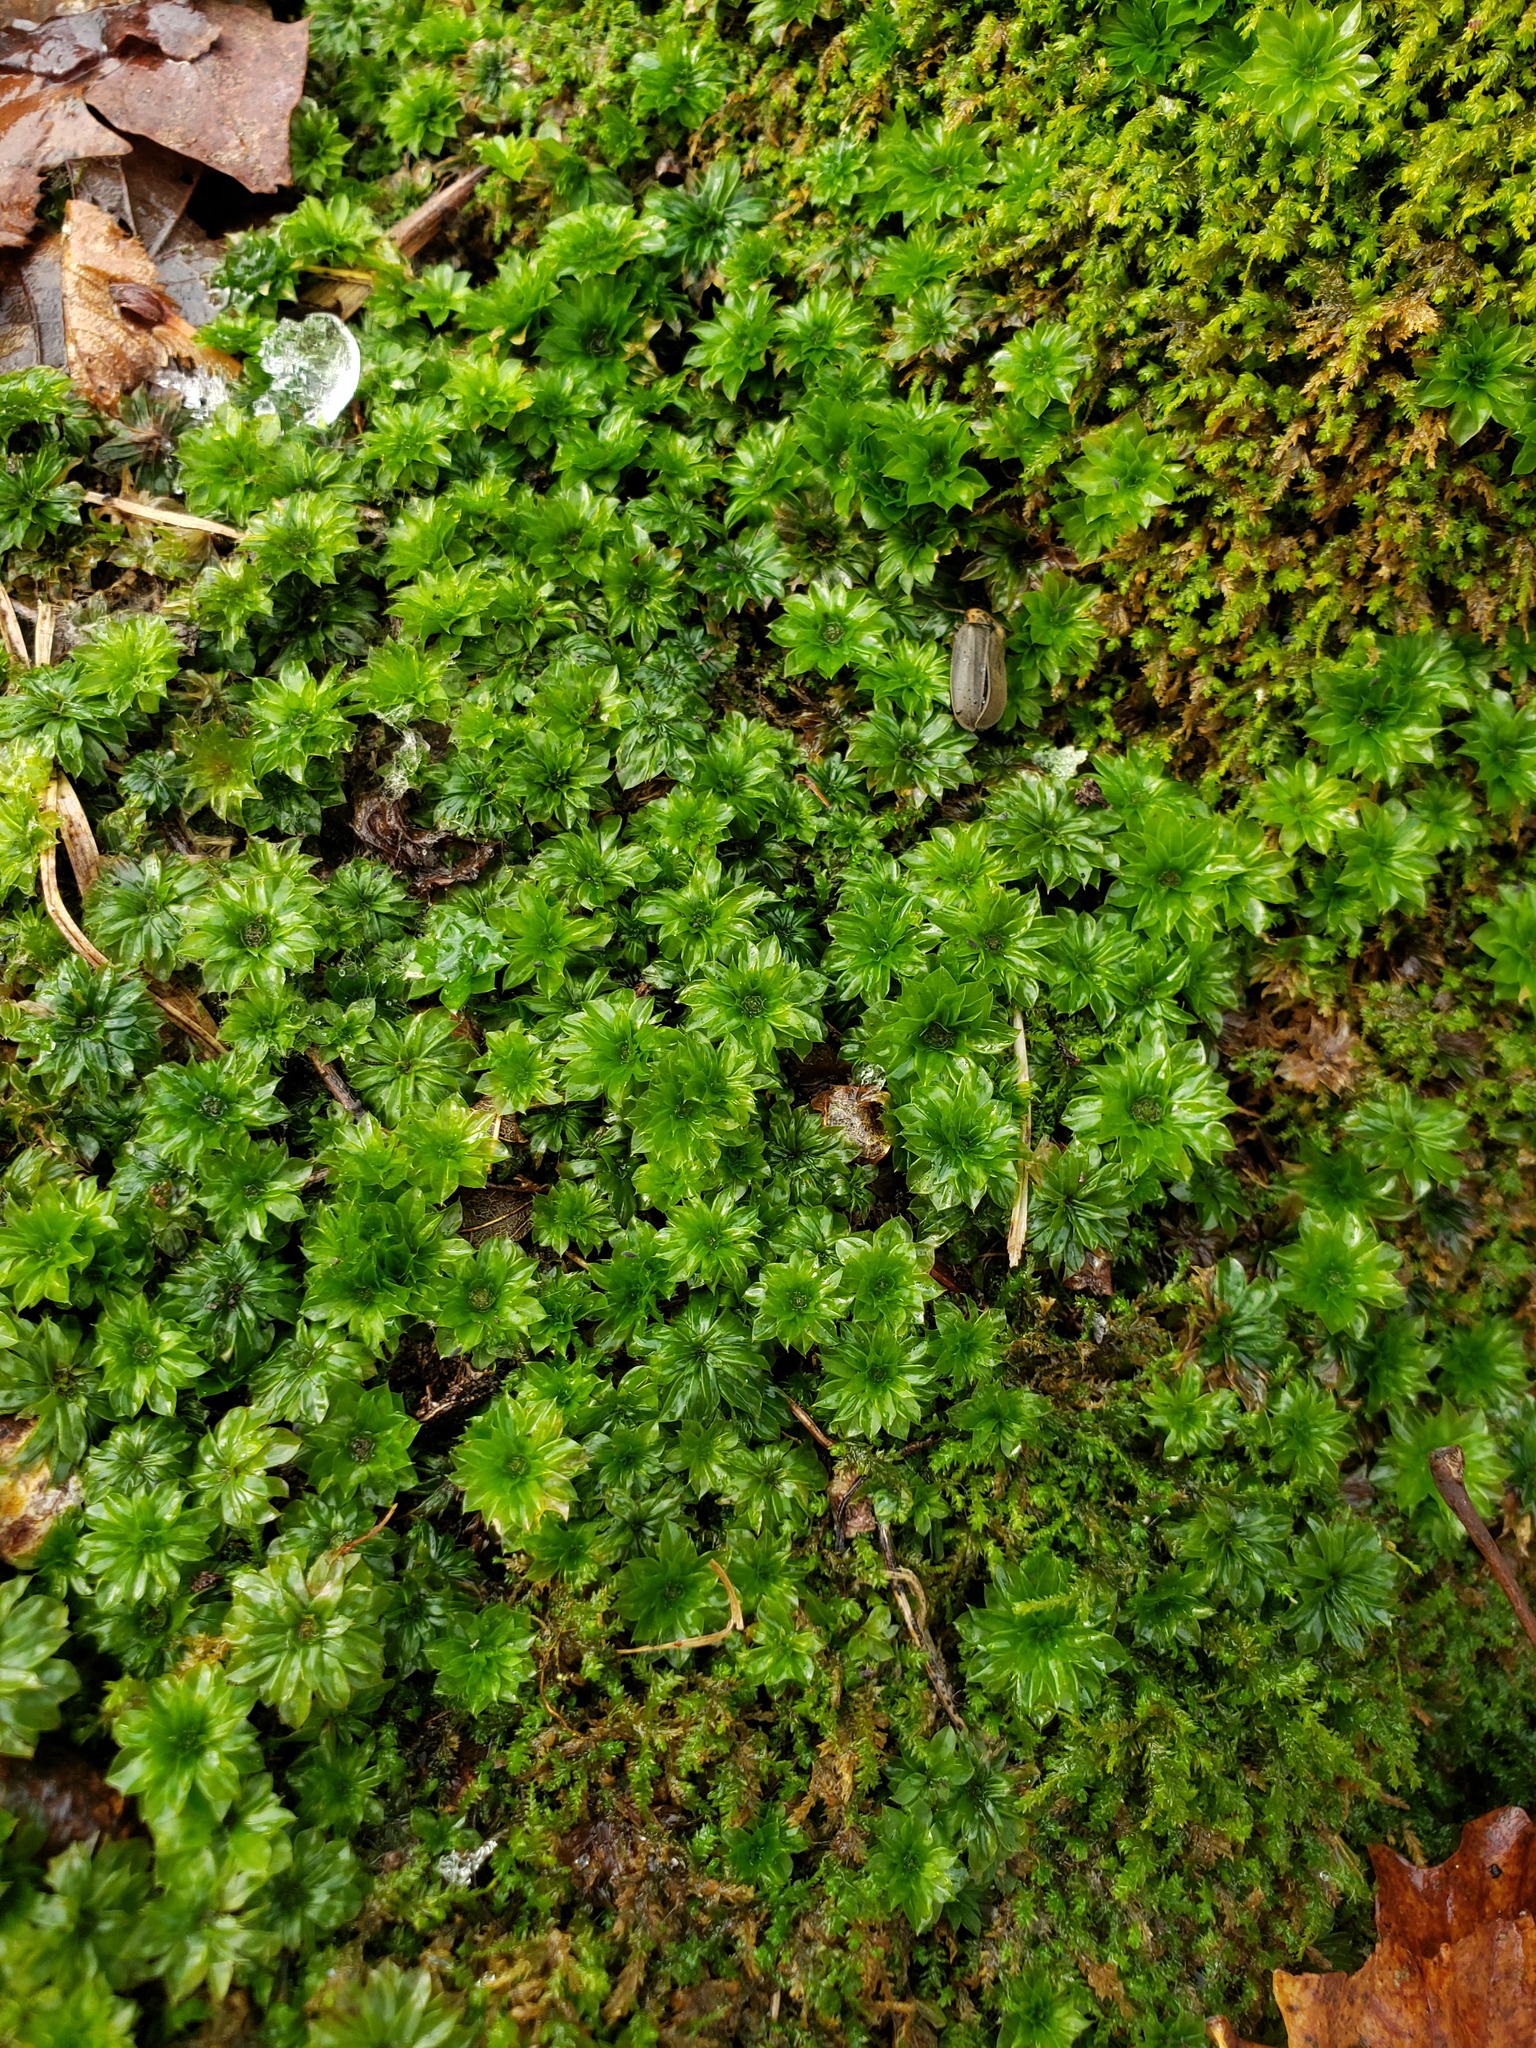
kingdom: Plantae
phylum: Bryophyta
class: Bryopsida
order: Bryales
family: Bryaceae
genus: Rhodobryum
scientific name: Rhodobryum ontariense
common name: Ontario rhodobryum moss
